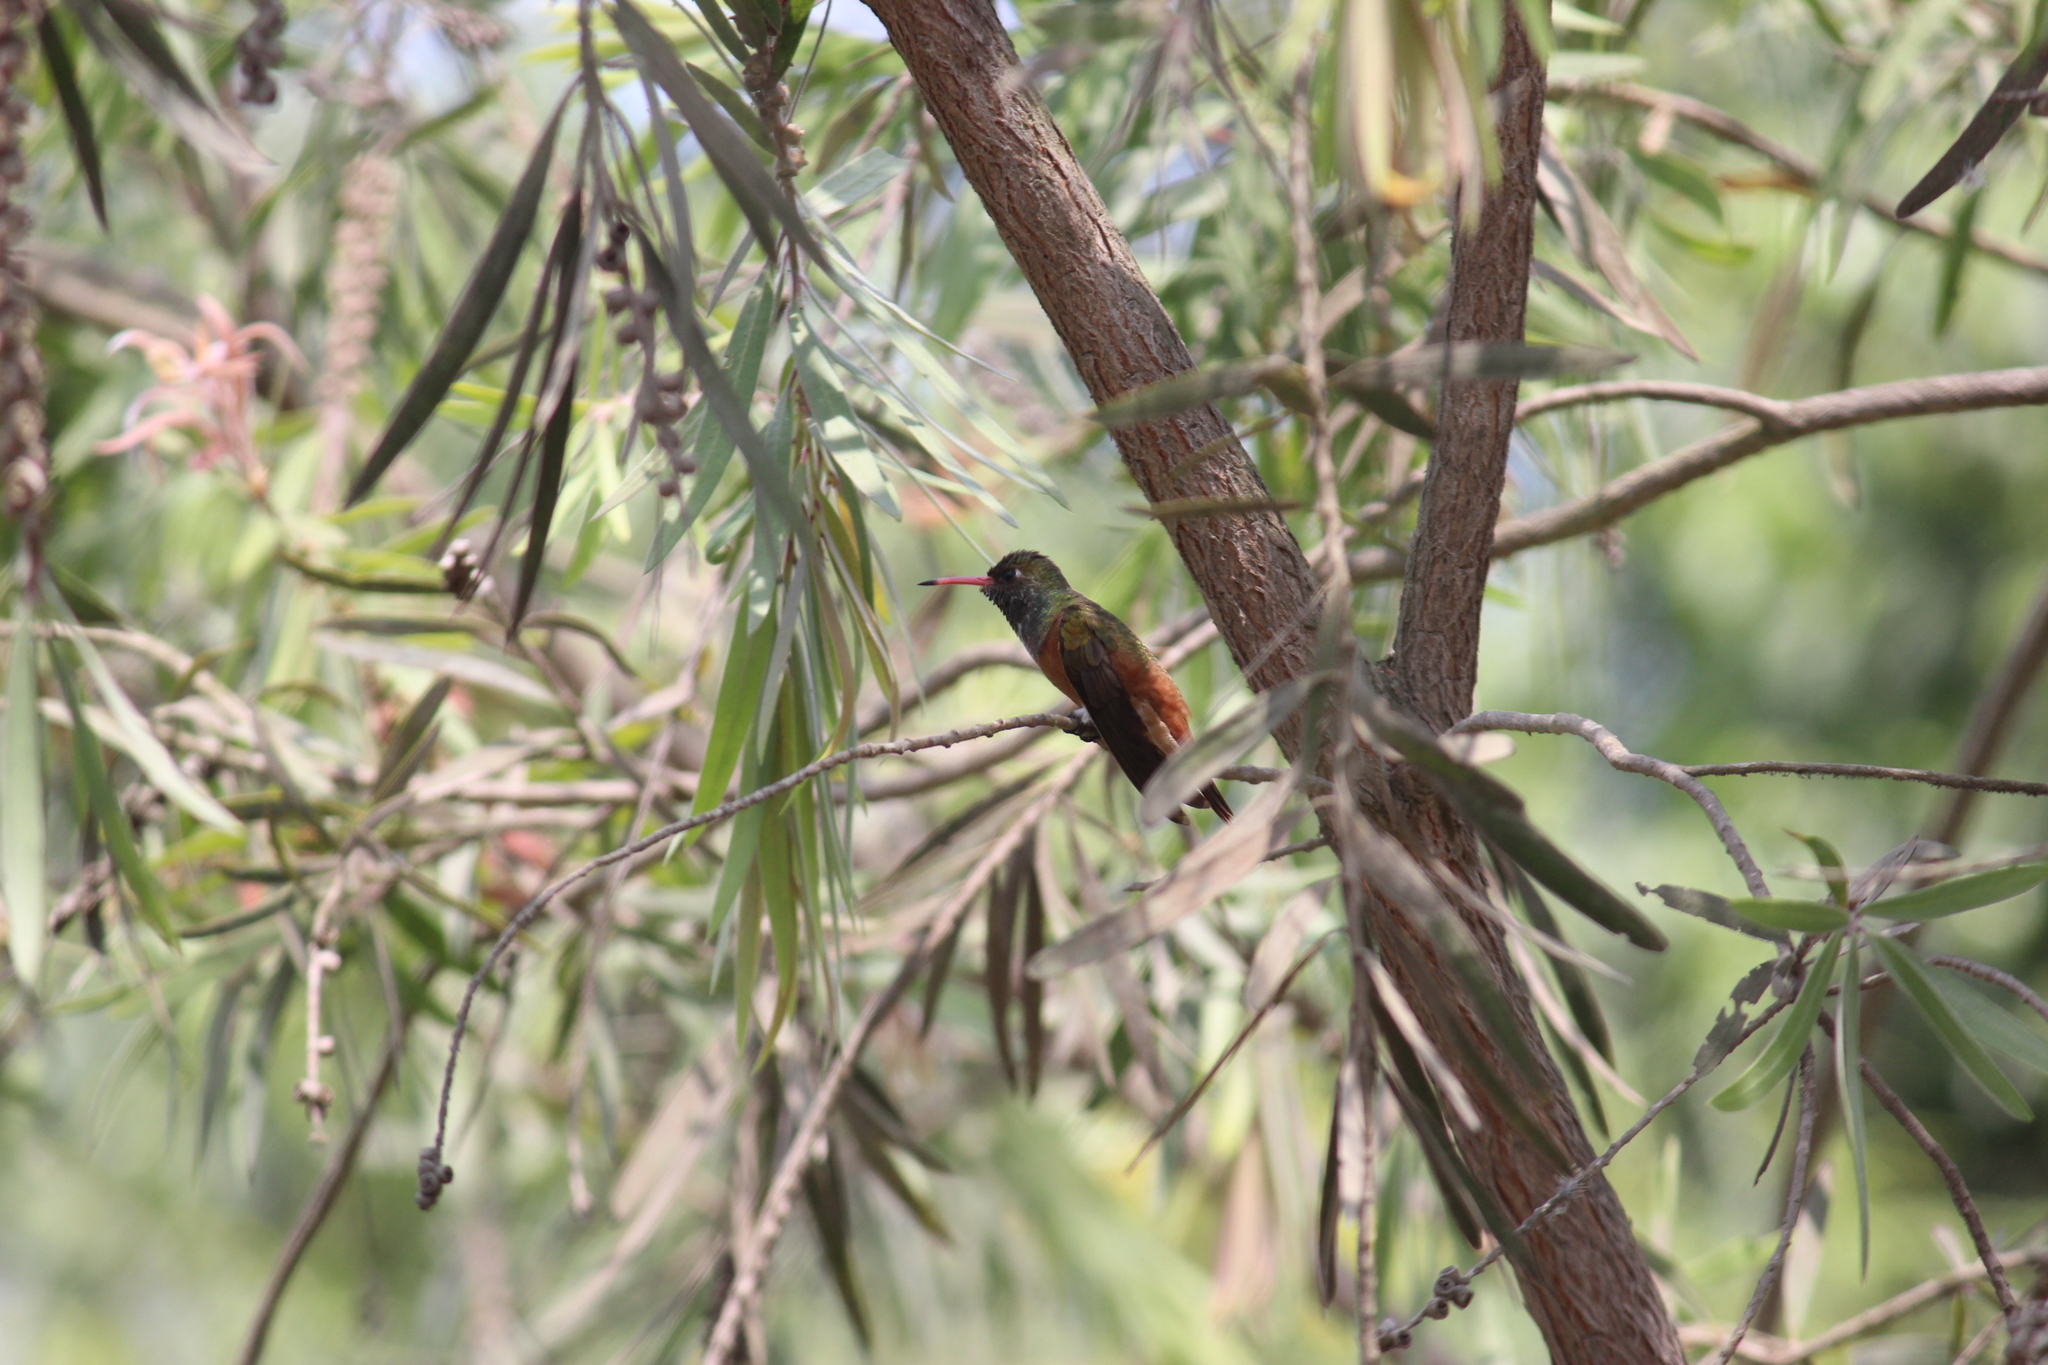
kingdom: Animalia
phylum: Chordata
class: Aves
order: Apodiformes
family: Trochilidae
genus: Amazilis
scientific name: Amazilis amazilia
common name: Amazilia hummingbird
